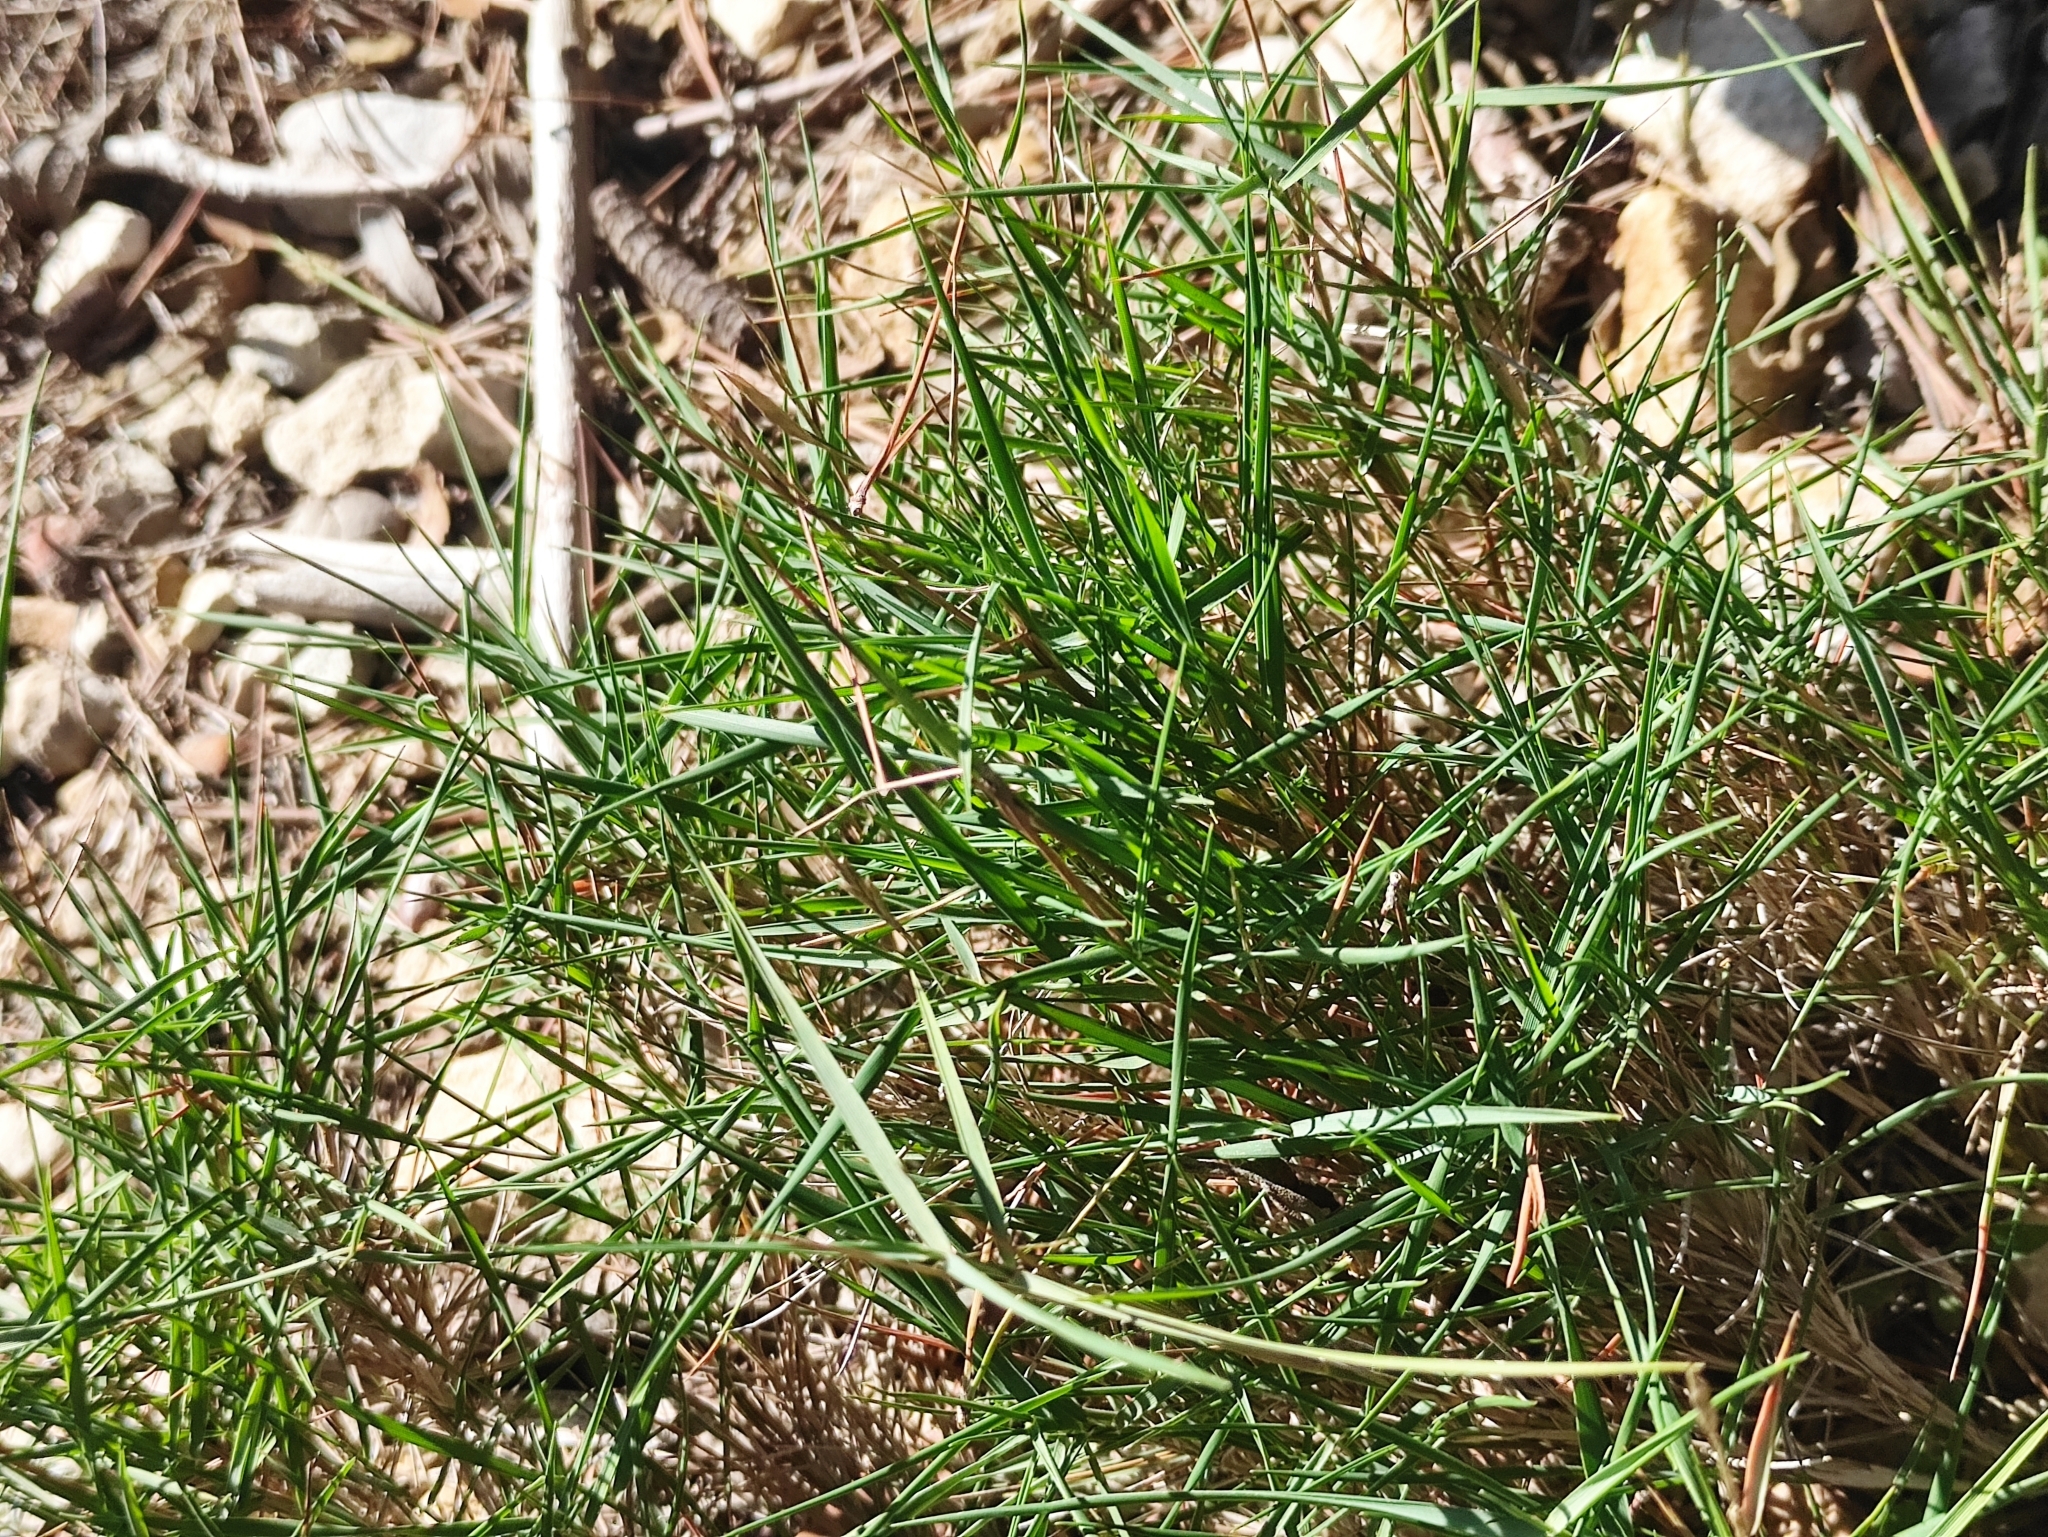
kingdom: Plantae
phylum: Tracheophyta
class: Liliopsida
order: Poales
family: Poaceae
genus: Brachypodium
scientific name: Brachypodium retusum
